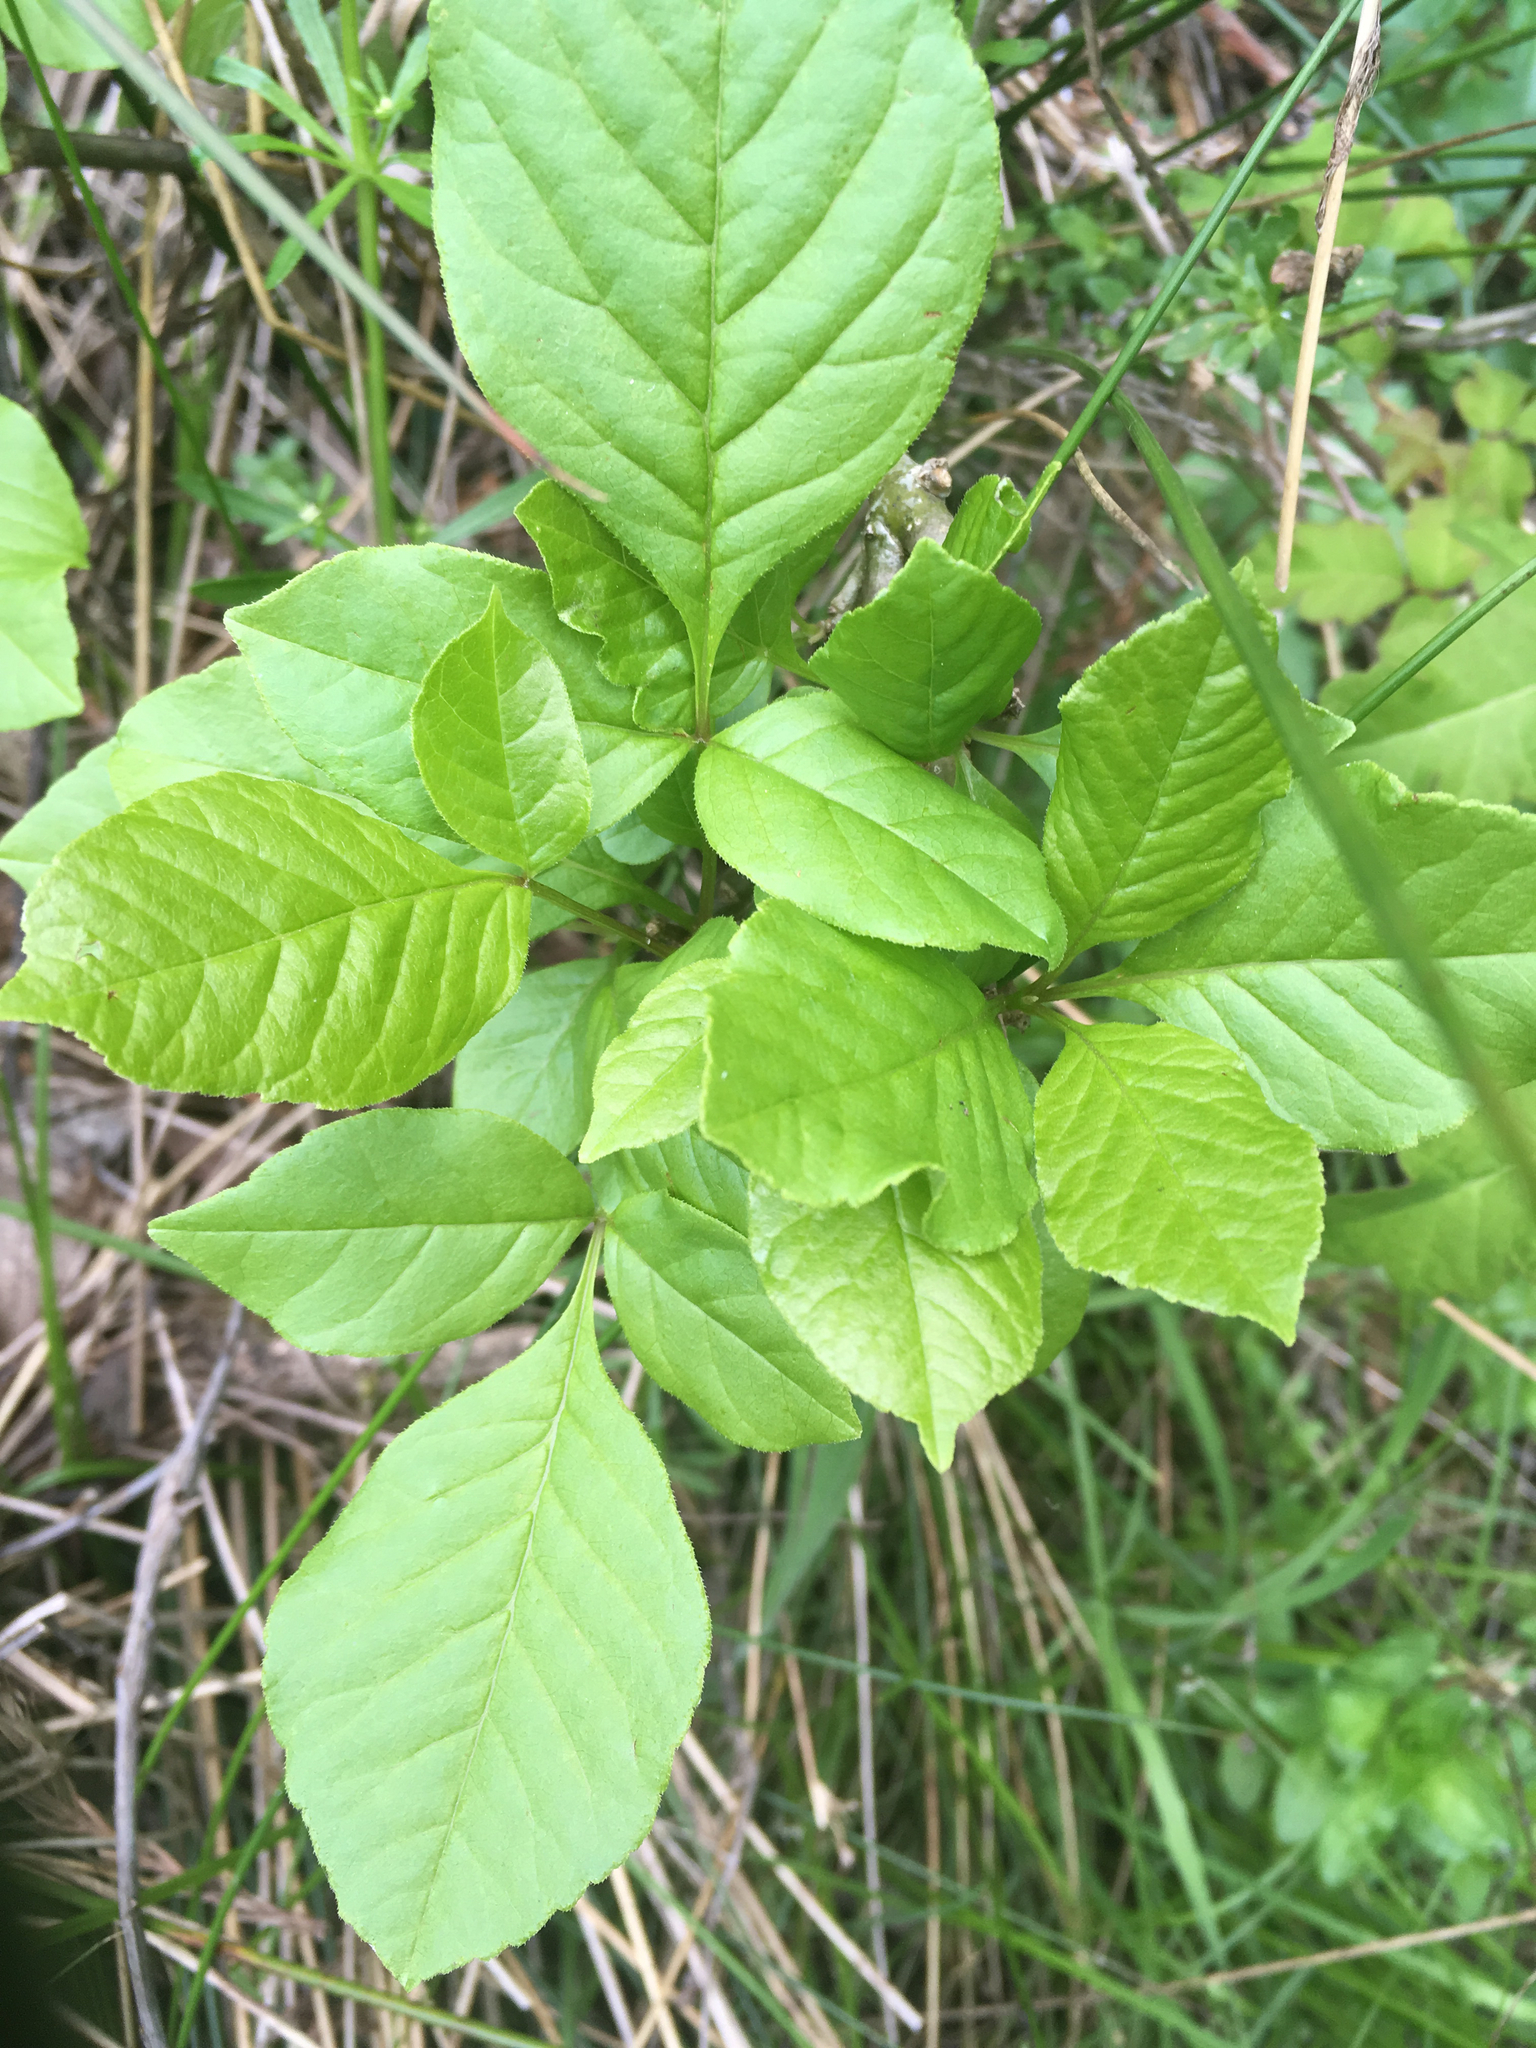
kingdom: Plantae
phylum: Tracheophyta
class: Magnoliopsida
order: Lamiales
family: Oleaceae
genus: Fraxinus
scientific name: Fraxinus latifolia
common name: Oregon ash
